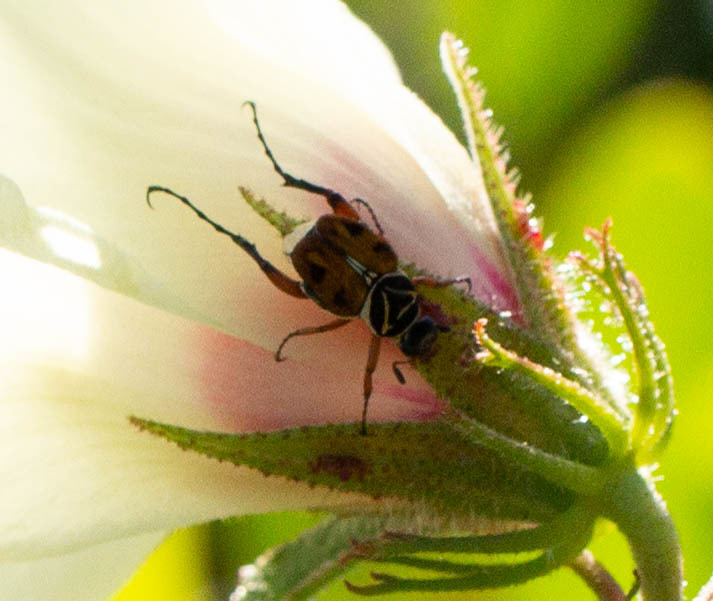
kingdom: Animalia
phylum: Arthropoda
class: Insecta
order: Coleoptera
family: Scarabaeidae
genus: Trigonopeltastes
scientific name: Trigonopeltastes delta
